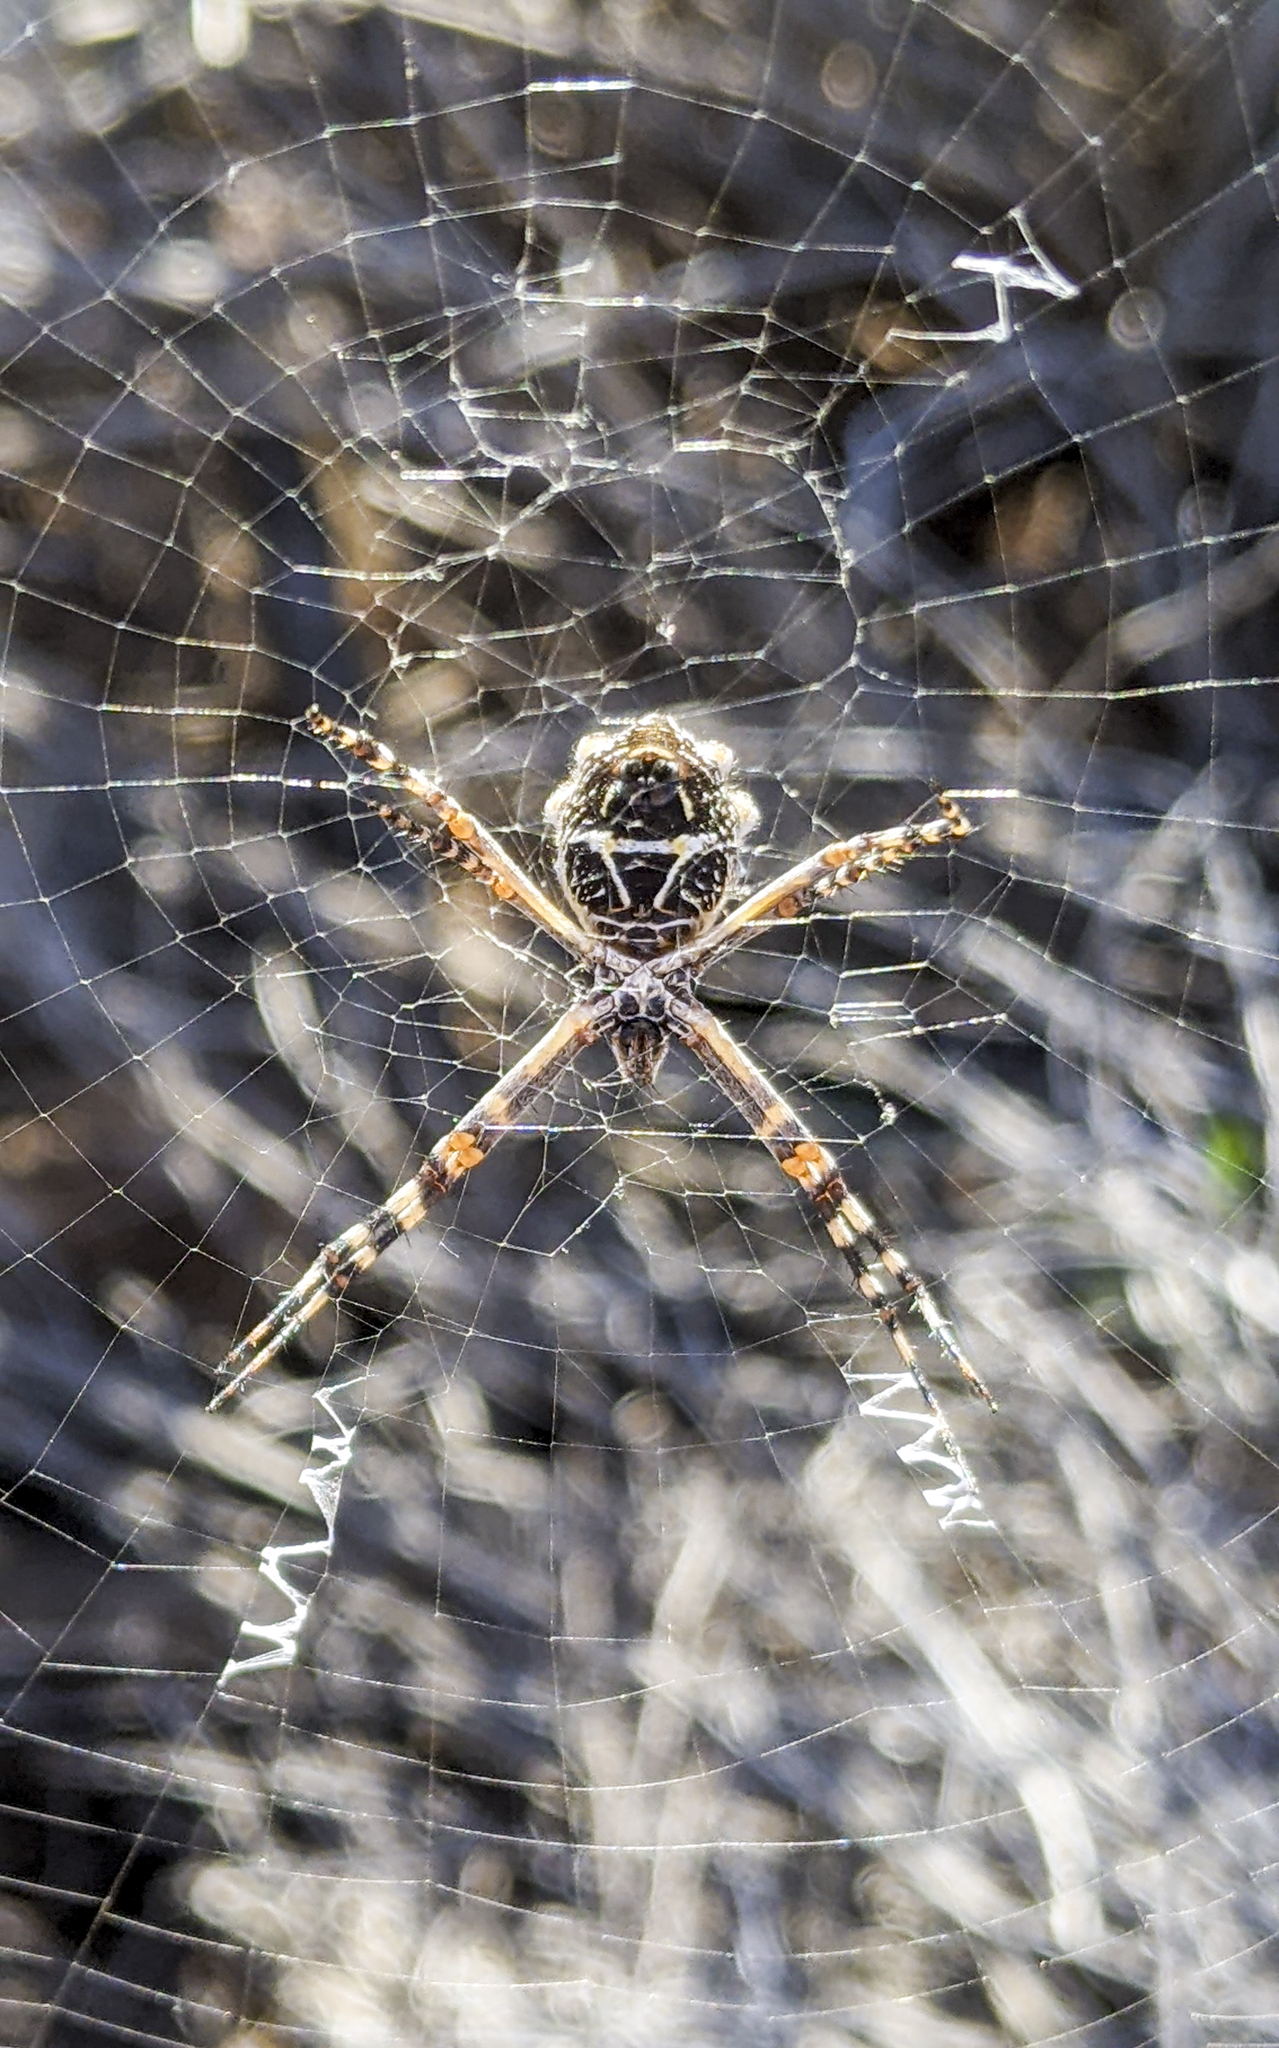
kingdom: Animalia
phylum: Arthropoda
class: Arachnida
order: Araneae
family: Araneidae
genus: Argiope
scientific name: Argiope argentata
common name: Orb weavers
